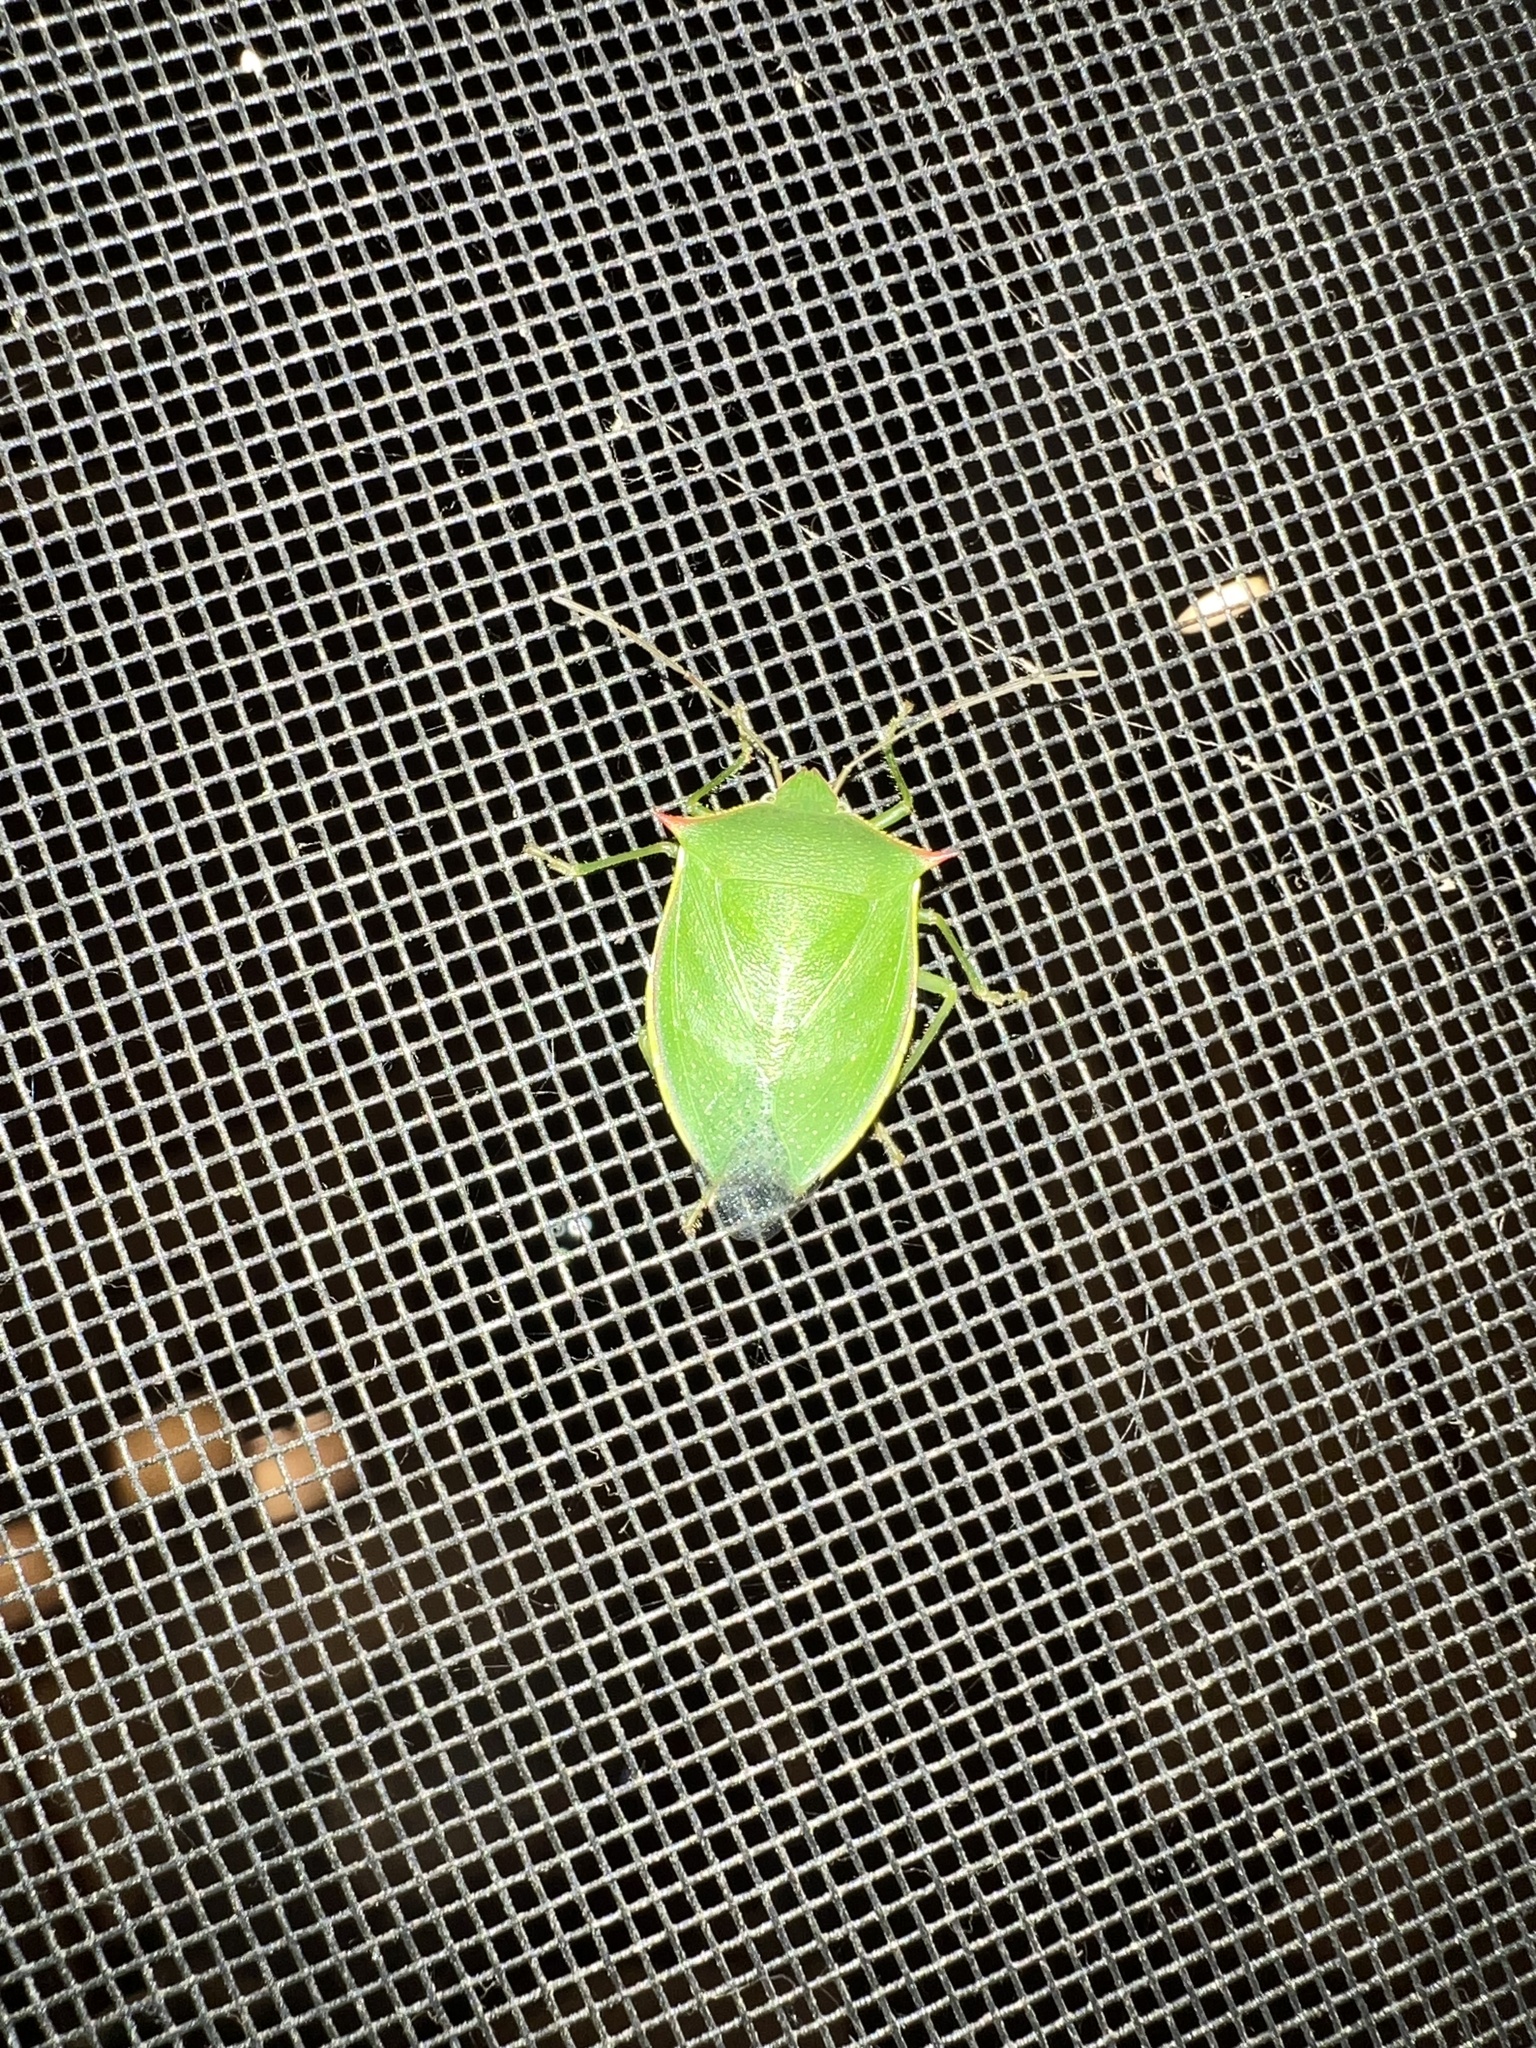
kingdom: Animalia
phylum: Arthropoda
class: Insecta
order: Hemiptera
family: Pentatomidae
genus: Loxa
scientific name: Loxa flavicollis
